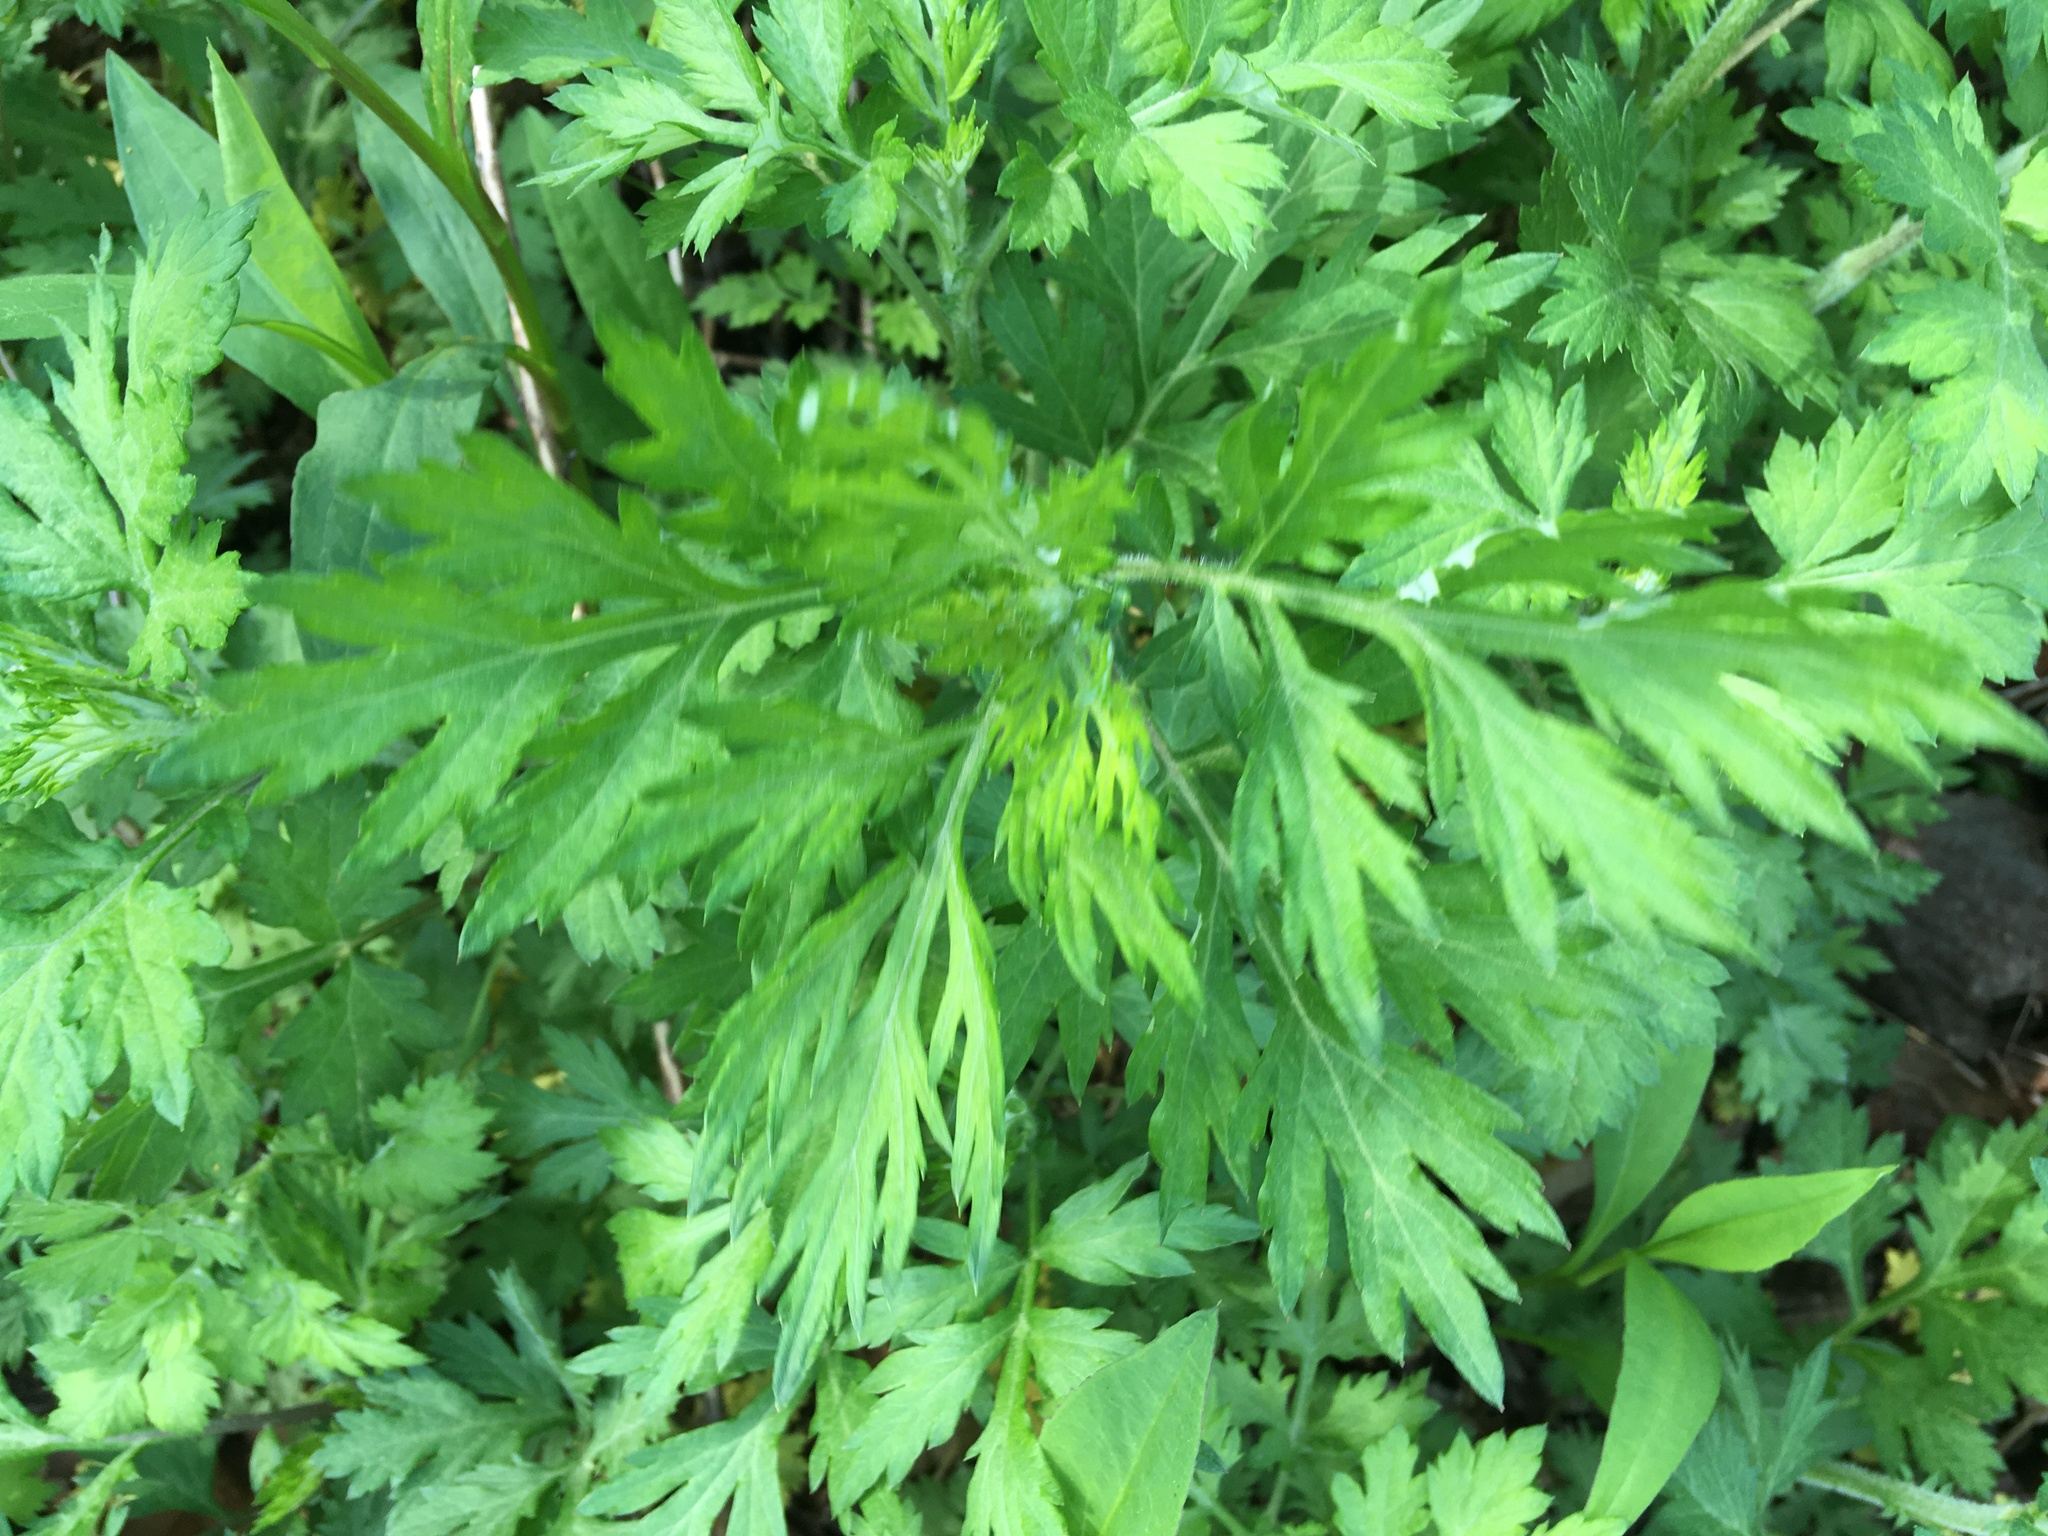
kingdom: Plantae
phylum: Tracheophyta
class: Magnoliopsida
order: Asterales
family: Asteraceae
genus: Artemisia
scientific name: Artemisia vulgaris
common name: Mugwort
